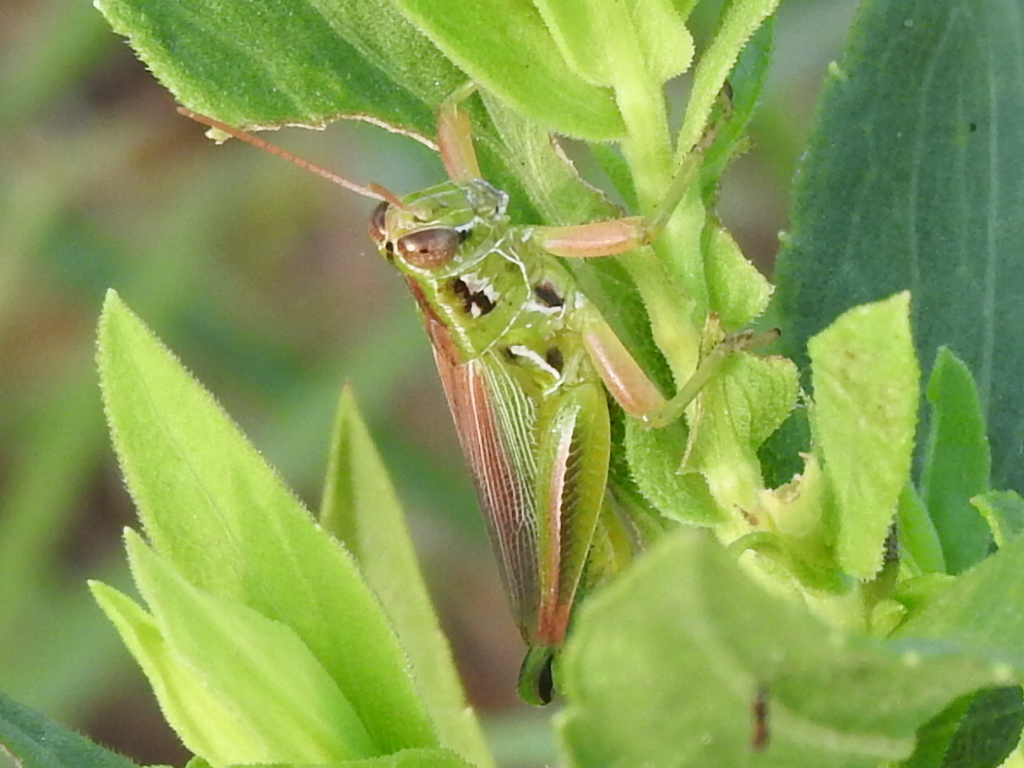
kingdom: Animalia
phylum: Arthropoda
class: Insecta
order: Orthoptera
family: Acrididae
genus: Hesperotettix
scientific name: Hesperotettix viridis
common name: Meadow purple-striped grasshopper
